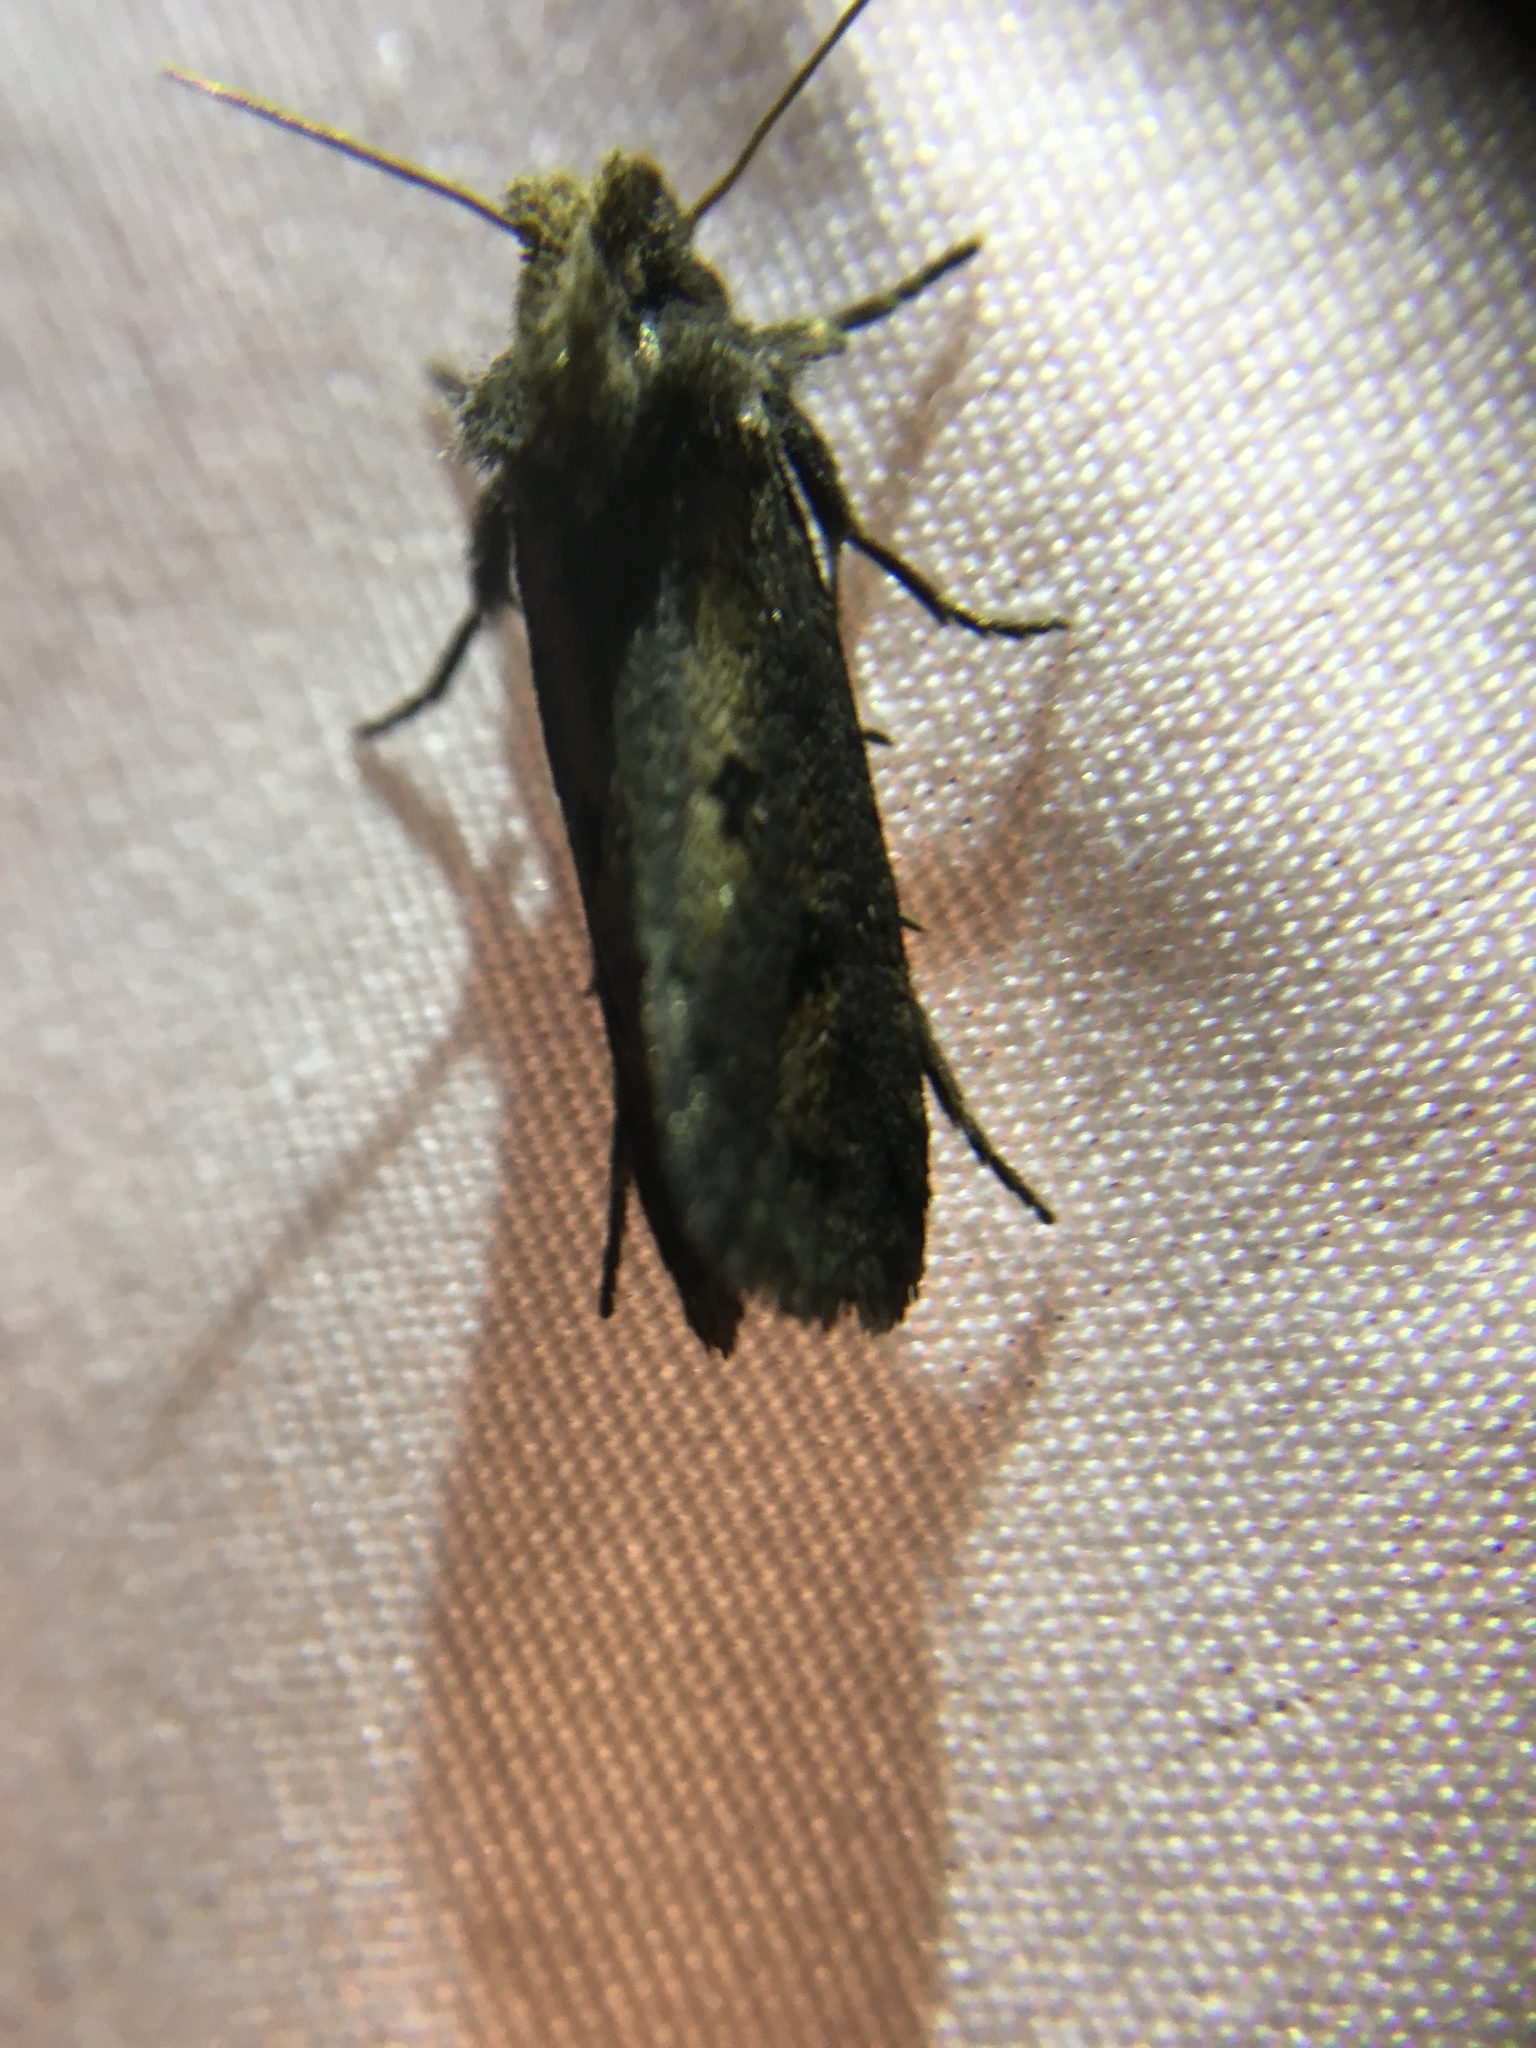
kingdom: Animalia
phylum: Arthropoda
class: Insecta
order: Lepidoptera
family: Tineidae
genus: Acrolophus
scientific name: Acrolophus popeanella
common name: Clemens' grass tubeworm moth
